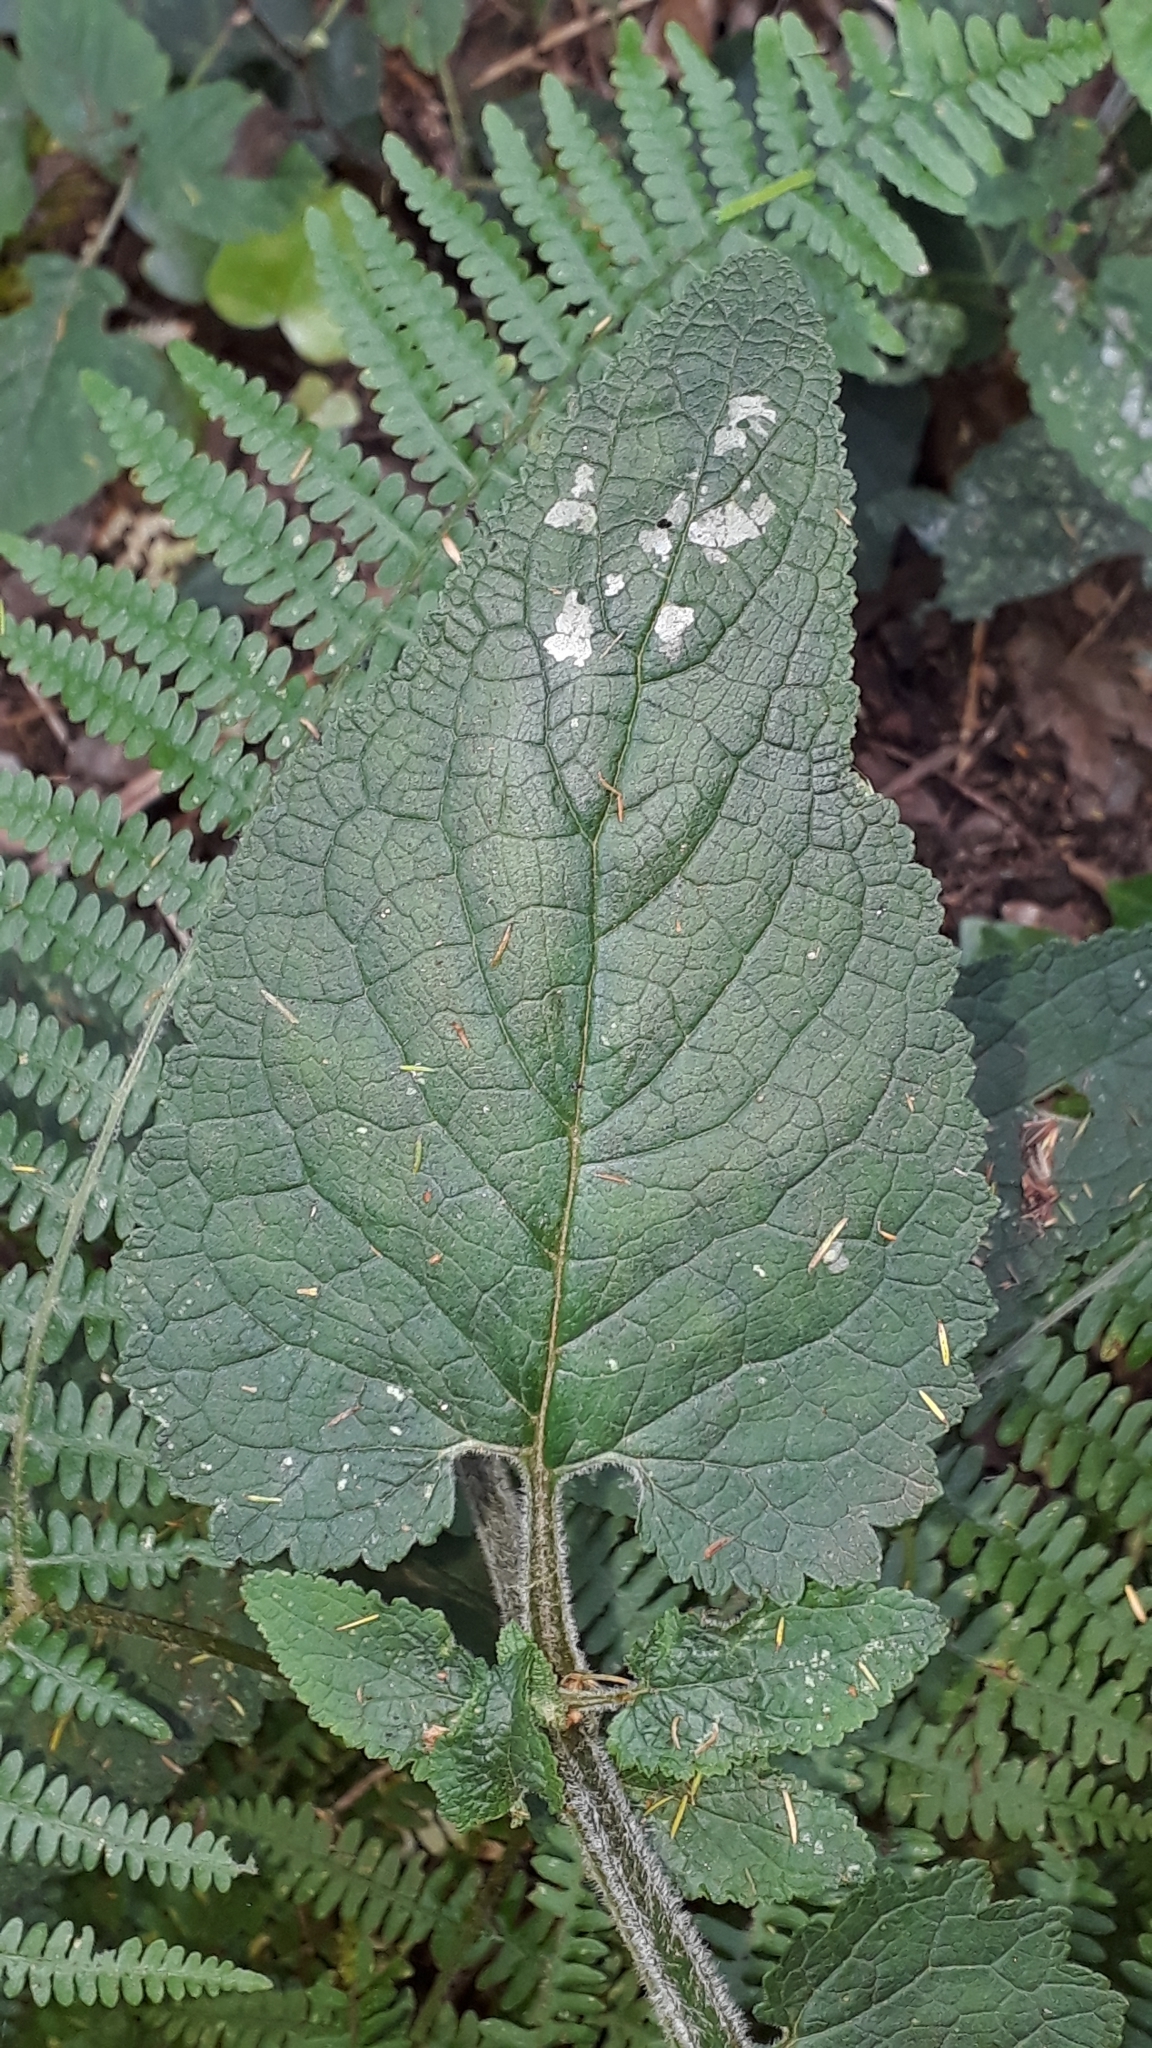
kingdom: Plantae
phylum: Tracheophyta
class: Magnoliopsida
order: Lamiales
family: Scrophulariaceae
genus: Scrophularia
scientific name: Scrophularia smithii
